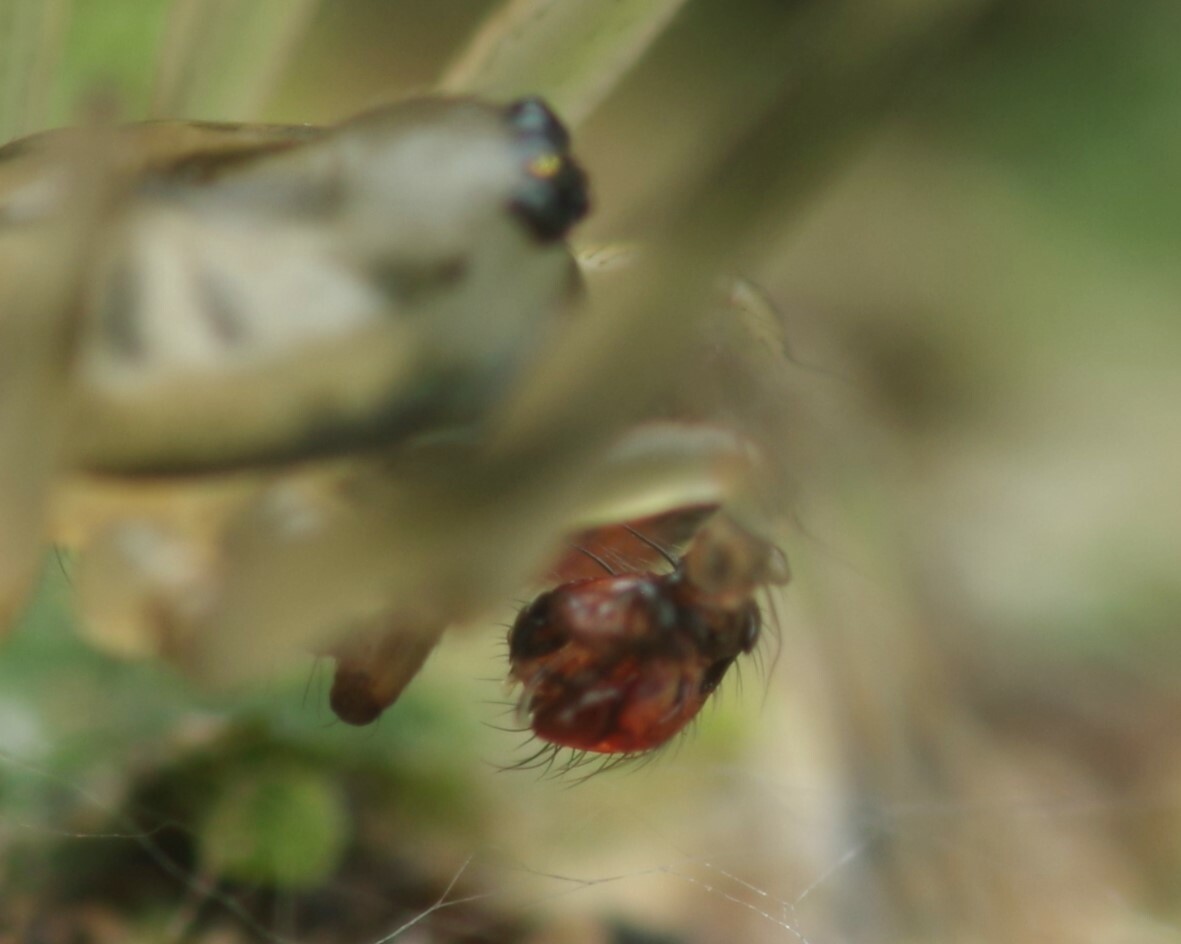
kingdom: Animalia
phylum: Arthropoda
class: Arachnida
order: Araneae
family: Linyphiidae
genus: Drapetisca
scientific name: Drapetisca socialis
